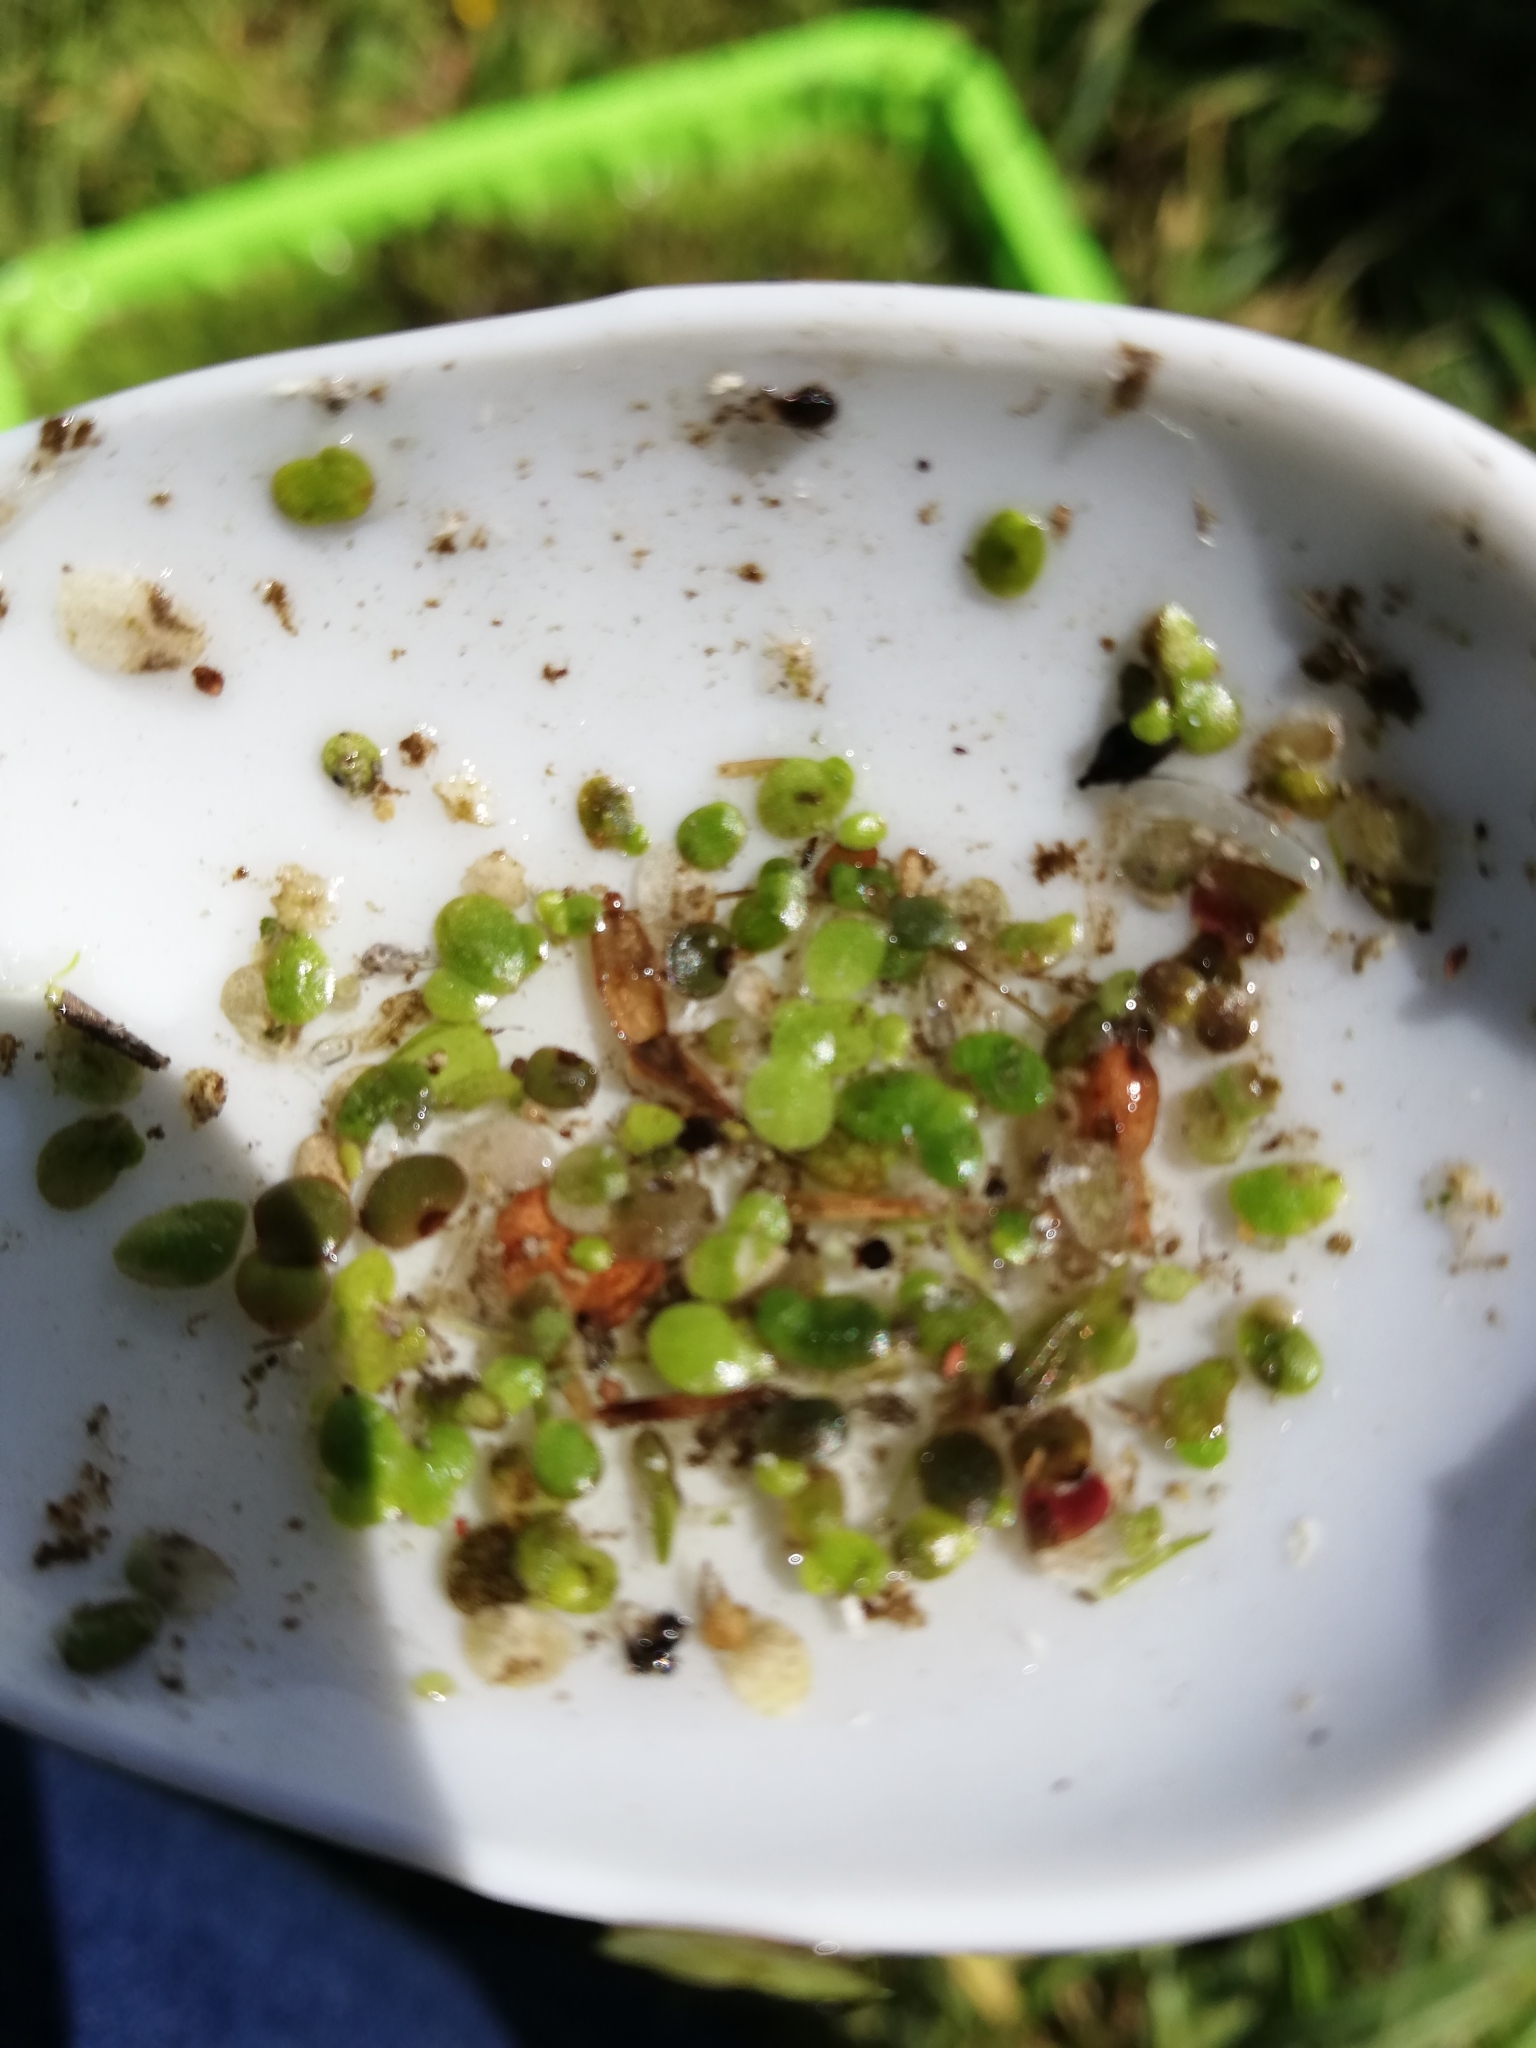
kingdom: Plantae
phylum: Tracheophyta
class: Liliopsida
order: Alismatales
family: Araceae
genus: Lemna
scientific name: Lemna minor
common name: Common duckweed
